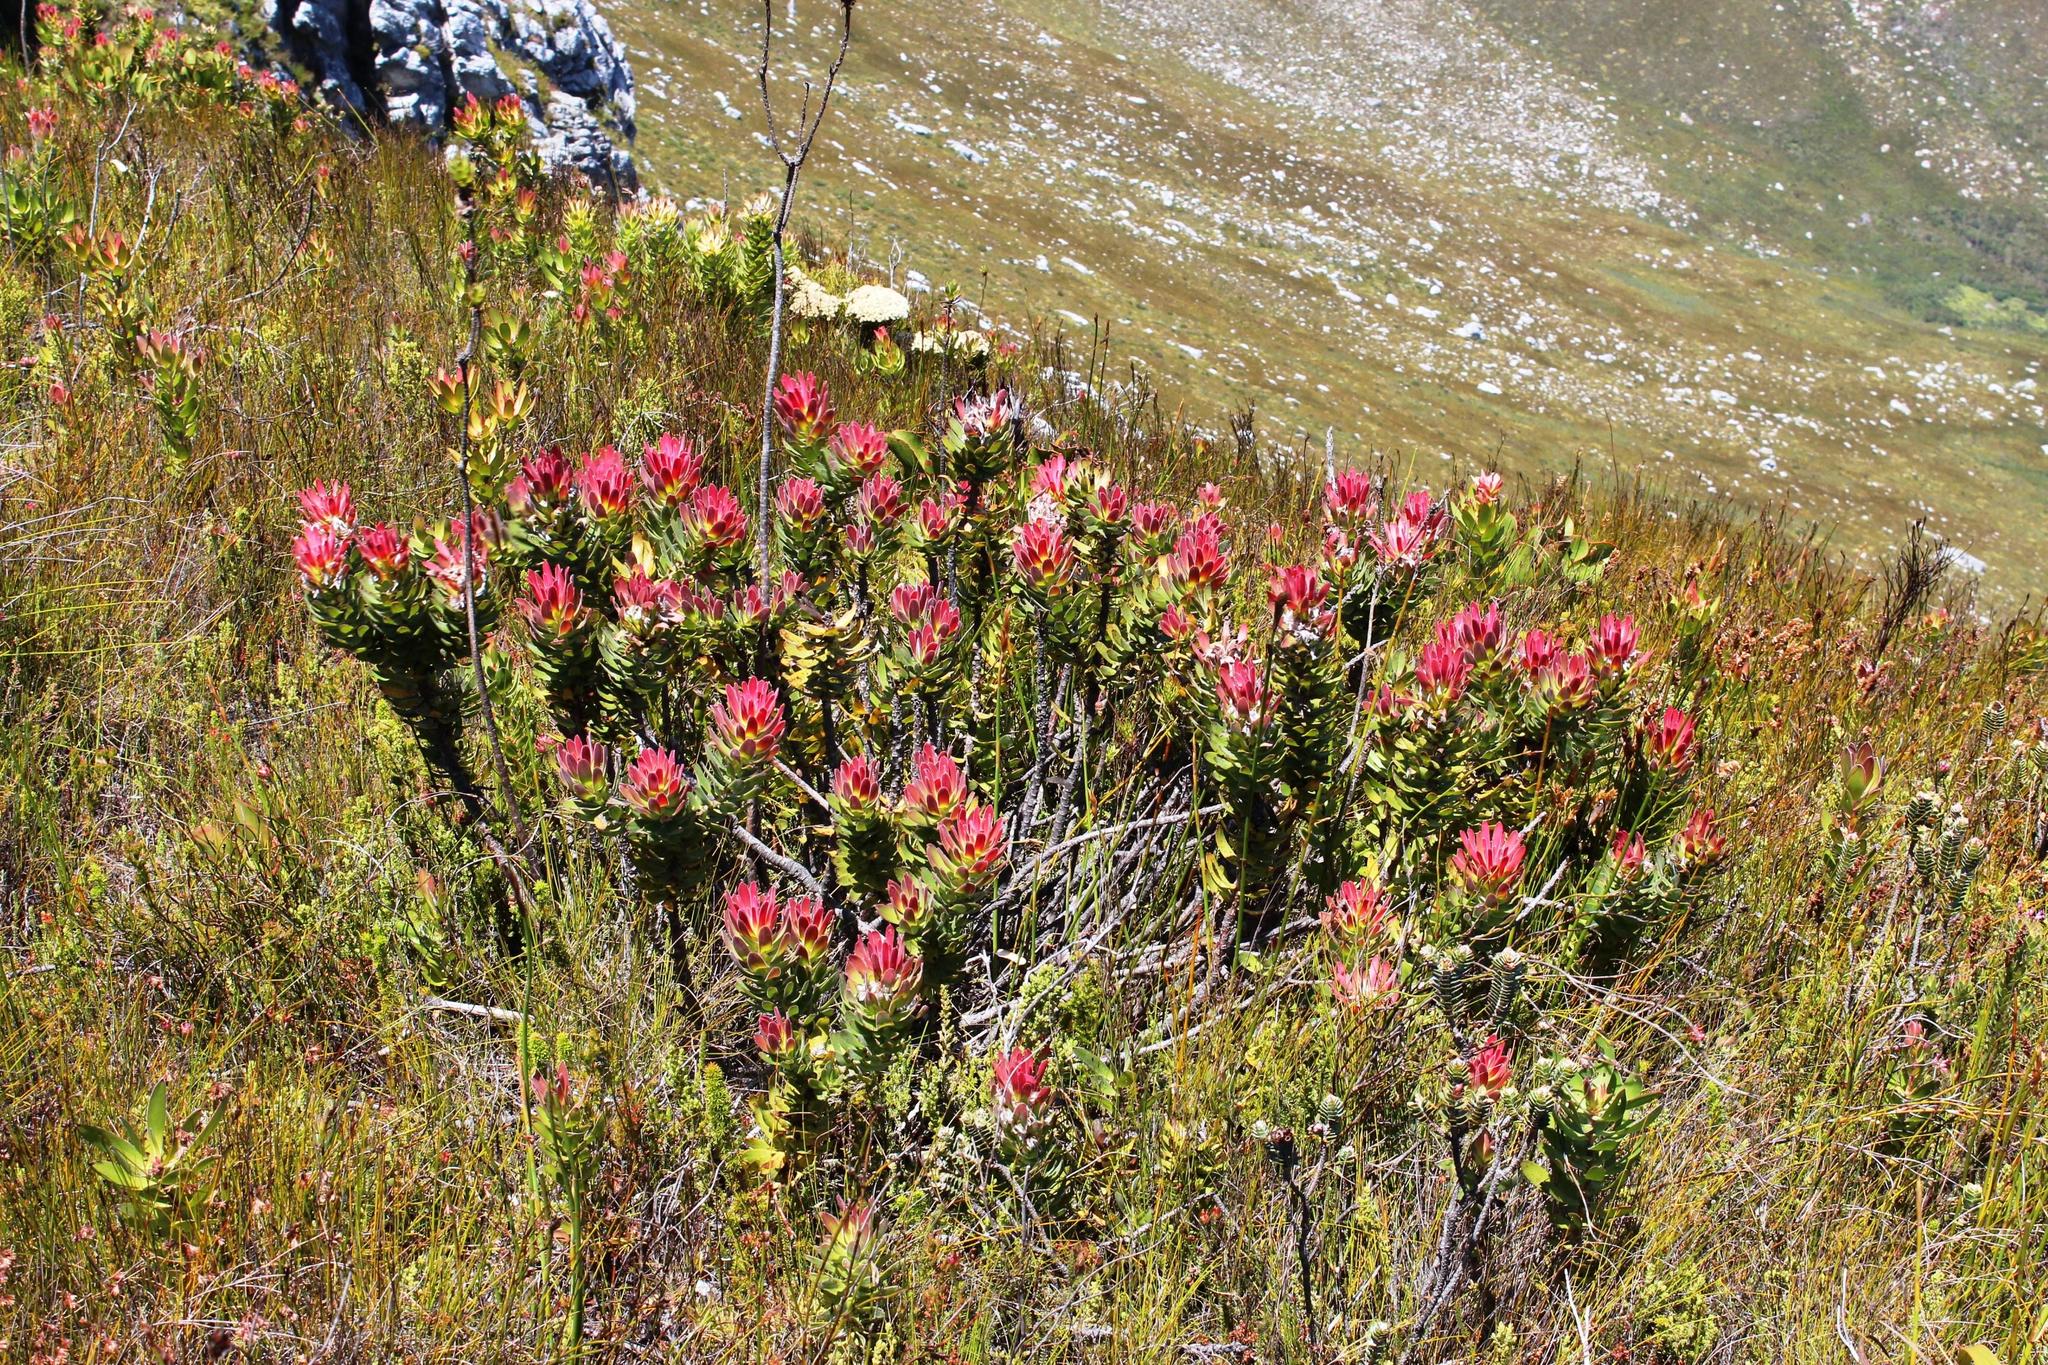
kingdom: Plantae
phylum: Tracheophyta
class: Magnoliopsida
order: Proteales
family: Proteaceae
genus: Mimetes
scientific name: Mimetes cucullatus
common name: Common pagoda
